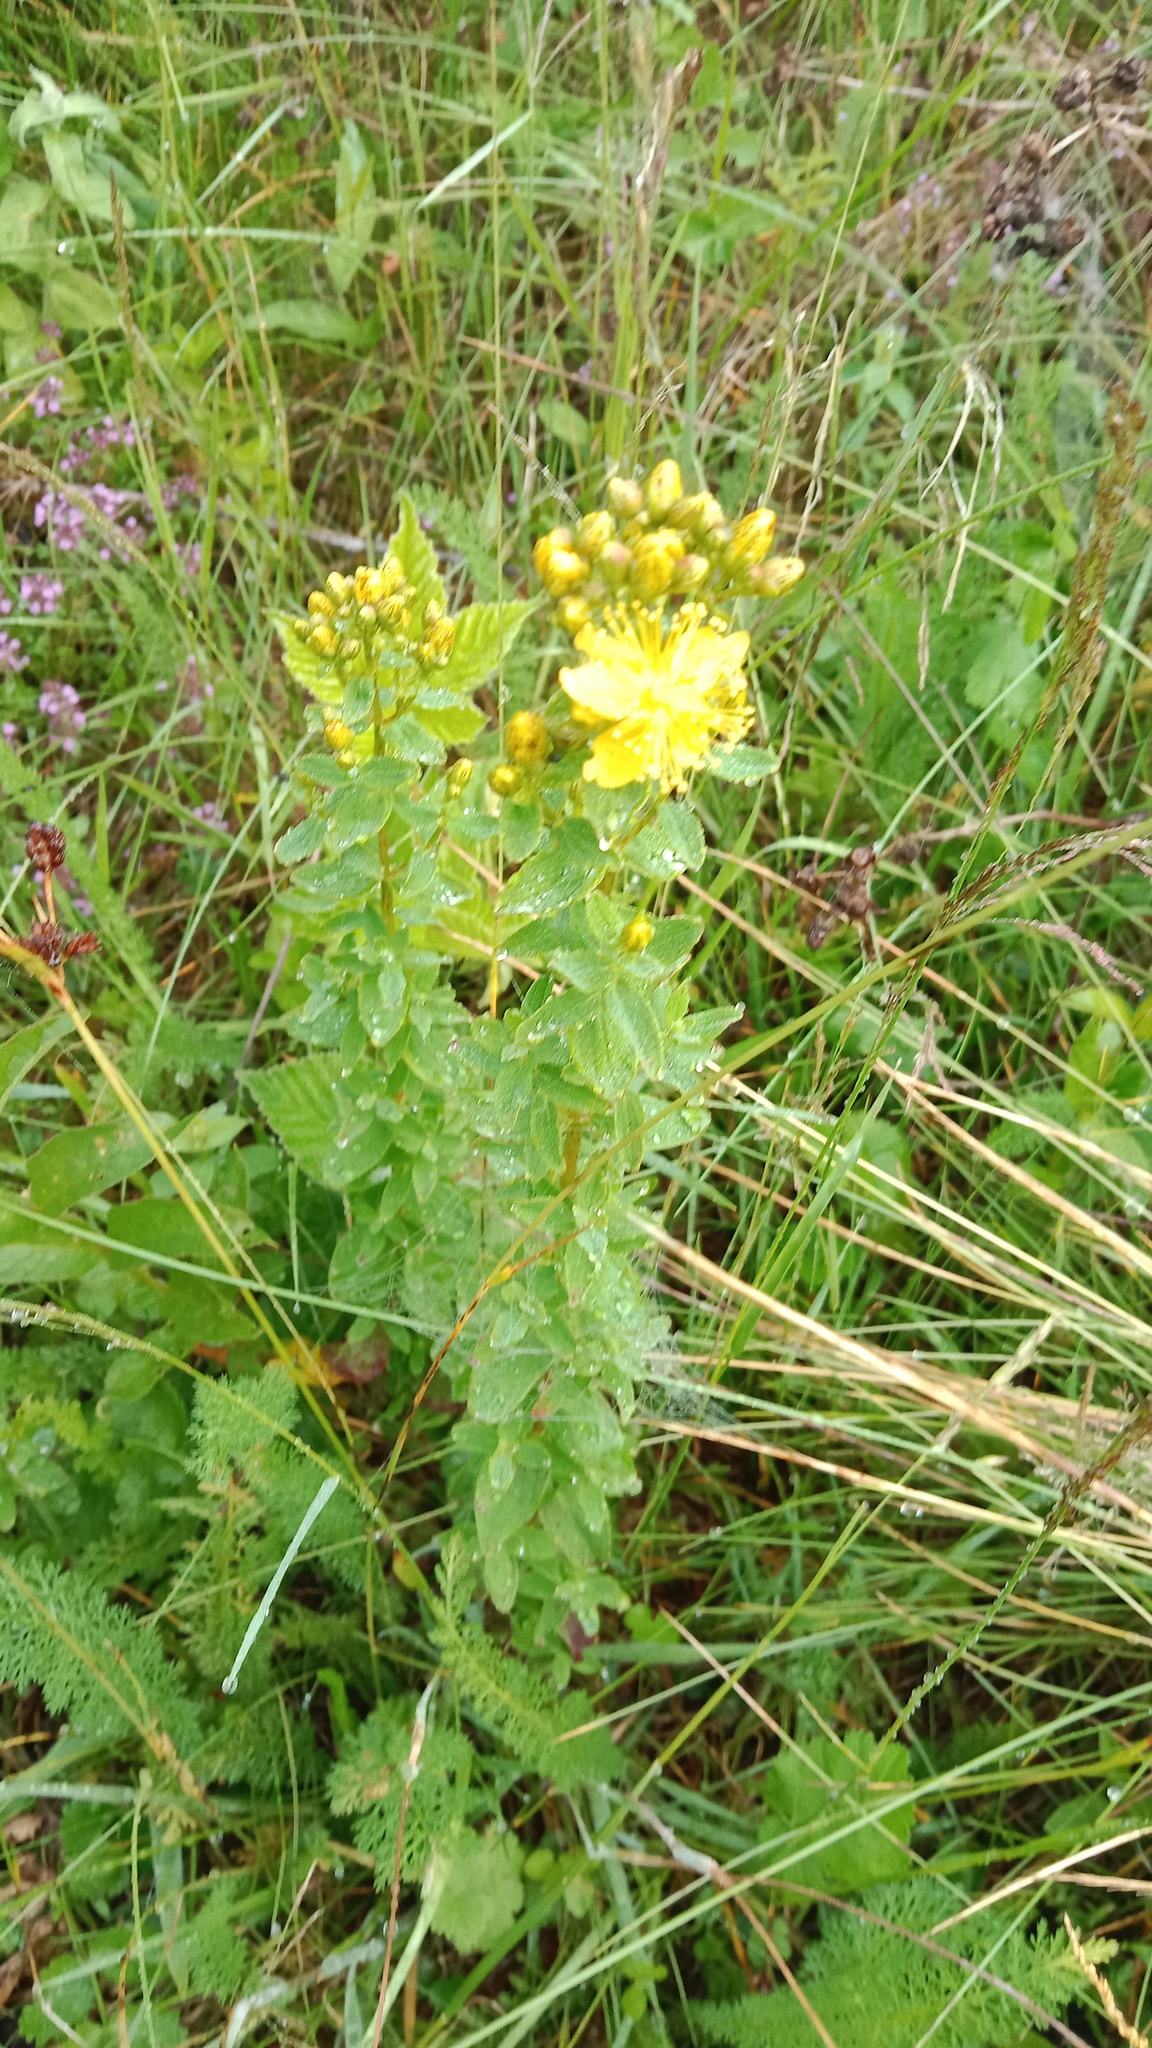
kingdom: Plantae
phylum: Tracheophyta
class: Magnoliopsida
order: Malpighiales
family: Hypericaceae
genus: Hypericum
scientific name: Hypericum maculatum
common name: Imperforate st. john's-wort
